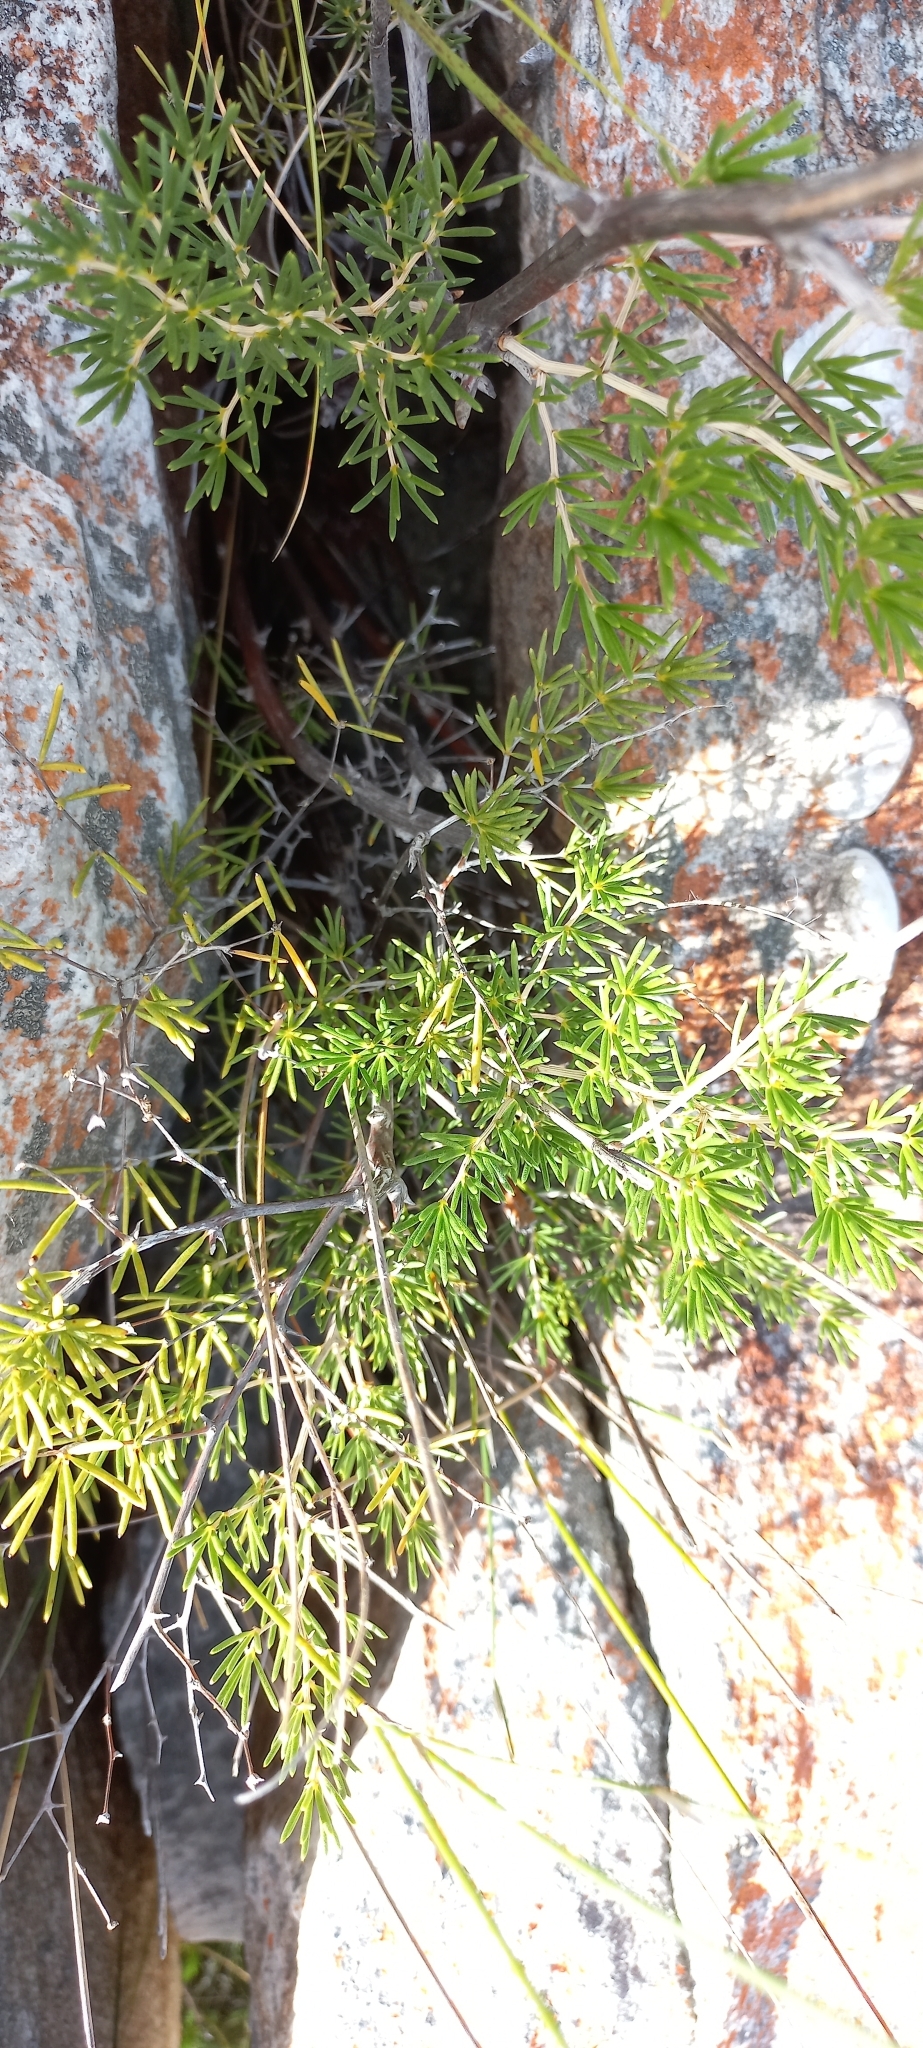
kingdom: Plantae
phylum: Tracheophyta
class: Liliopsida
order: Asparagales
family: Asparagaceae
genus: Asparagus
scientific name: Asparagus lignosus
